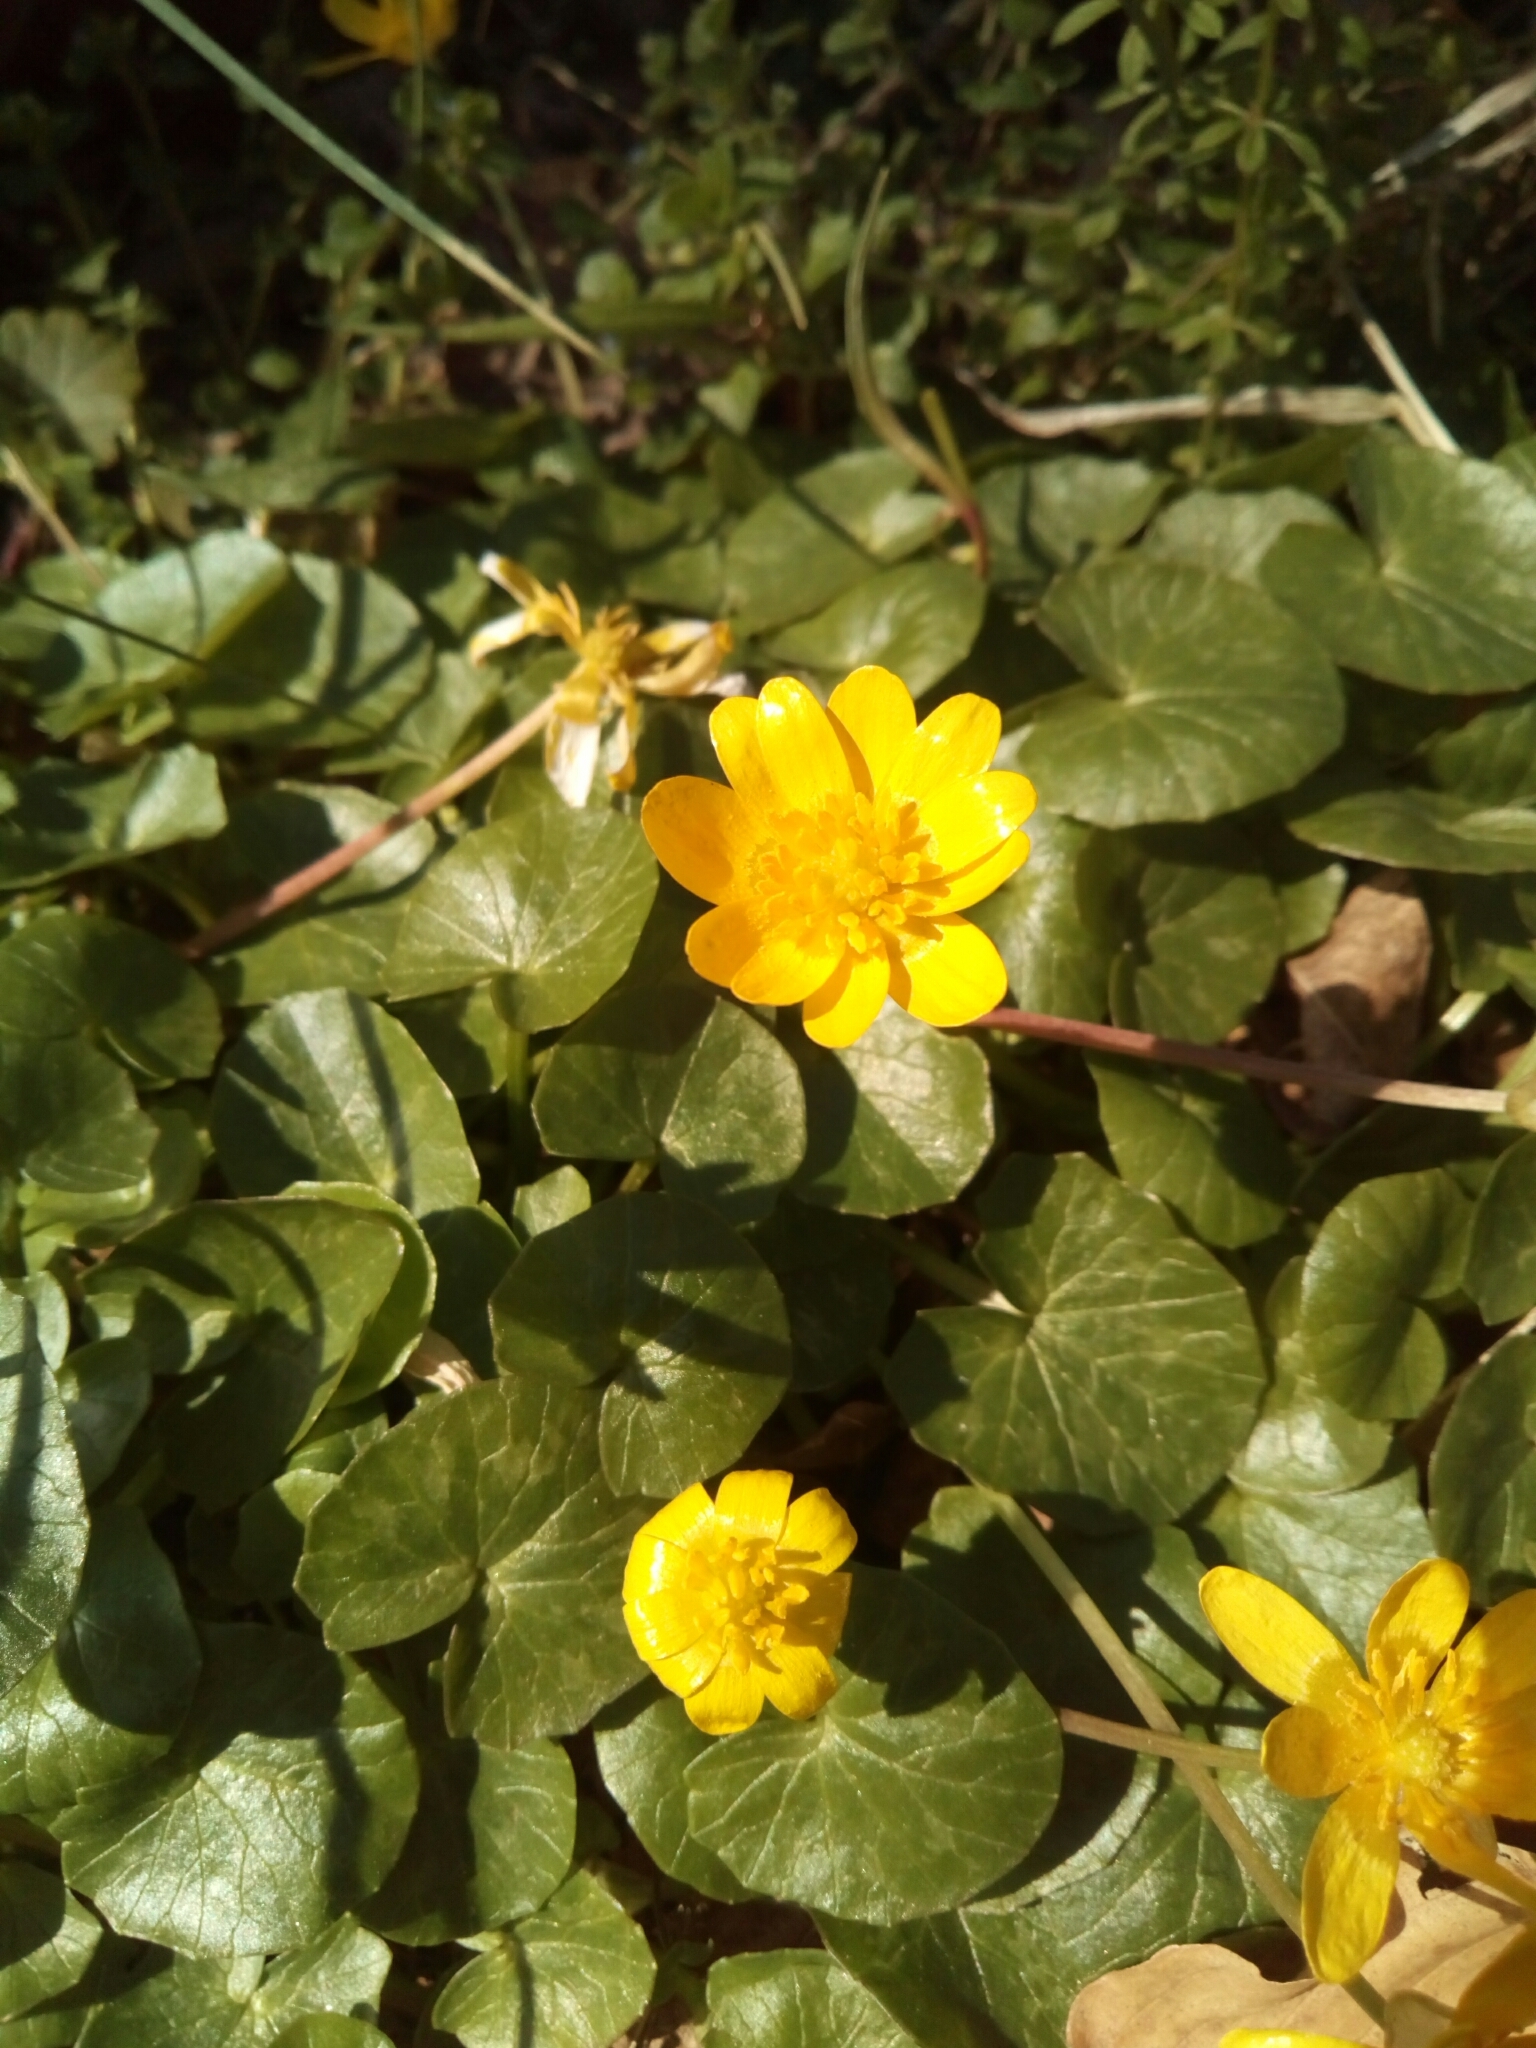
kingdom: Plantae
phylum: Tracheophyta
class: Magnoliopsida
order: Ranunculales
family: Ranunculaceae
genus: Ficaria
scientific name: Ficaria verna
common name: Lesser celandine
